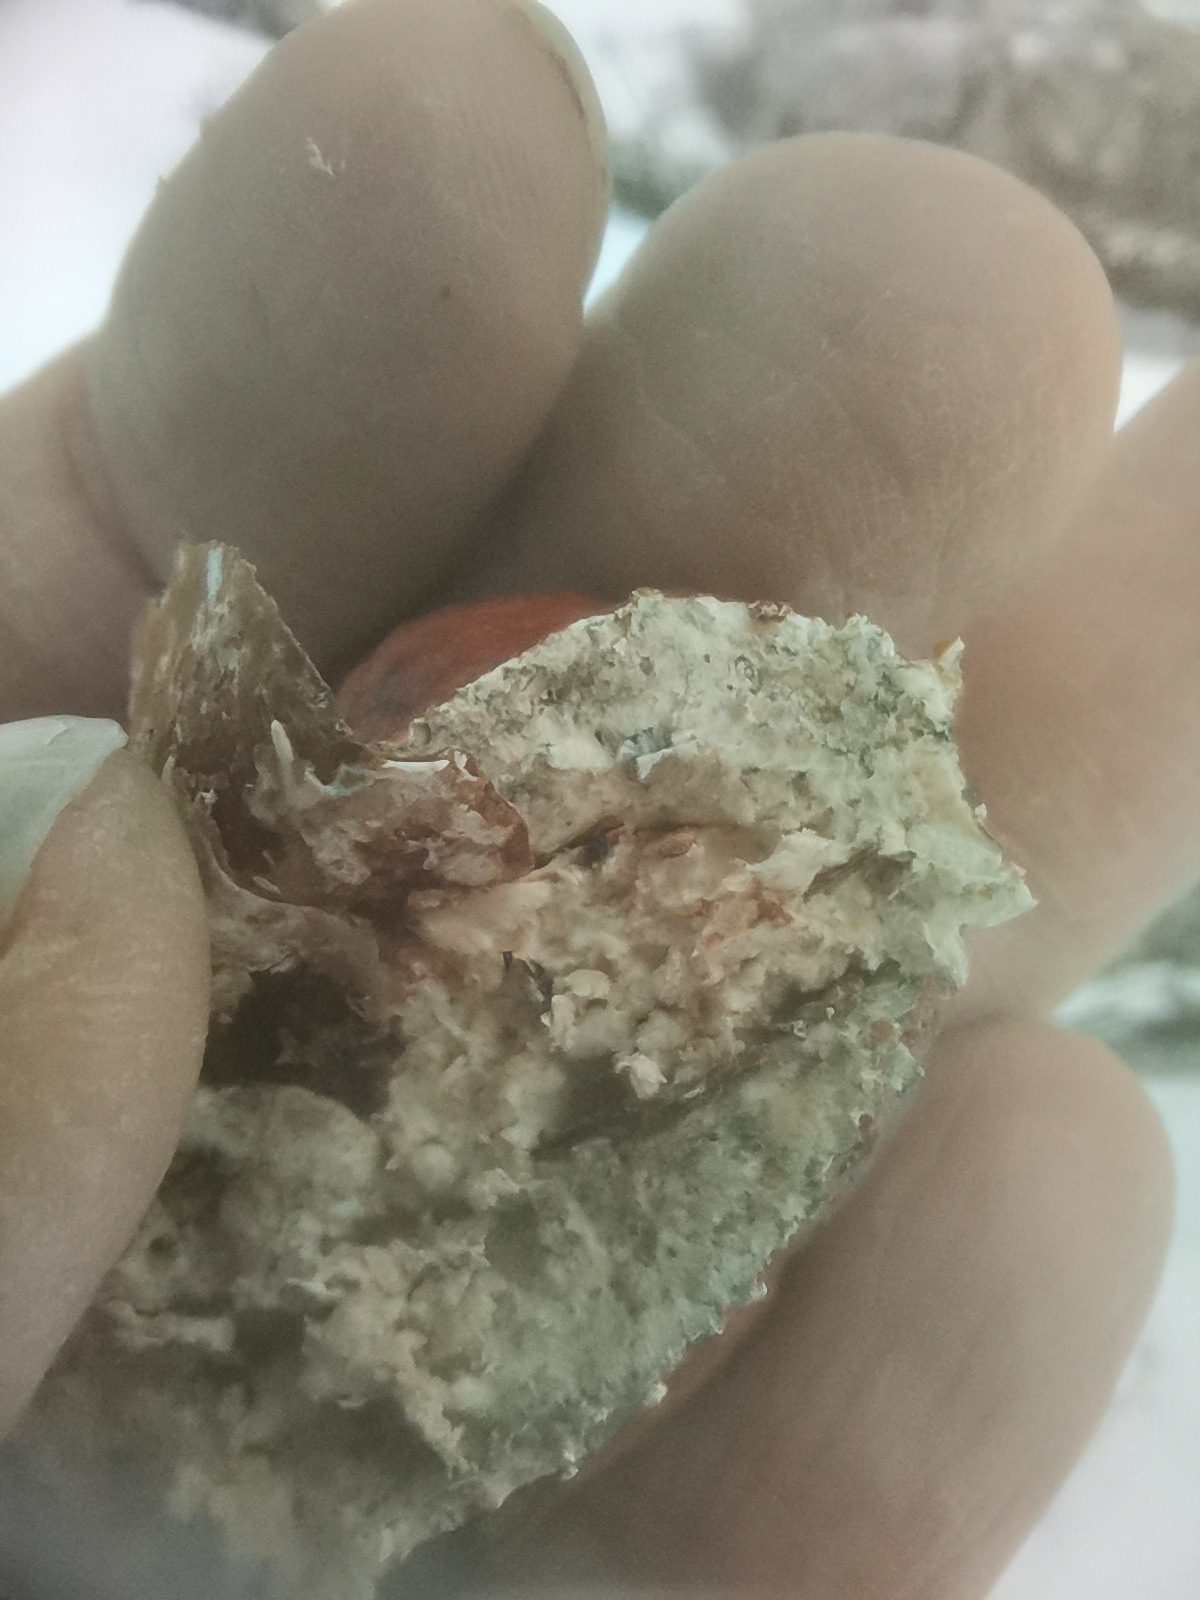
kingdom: Fungi
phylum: Basidiomycota
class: Agaricomycetes
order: Polyporales
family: Fomitopsidaceae
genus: Fomitopsis
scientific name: Fomitopsis pinicola
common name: Red-belted bracket
